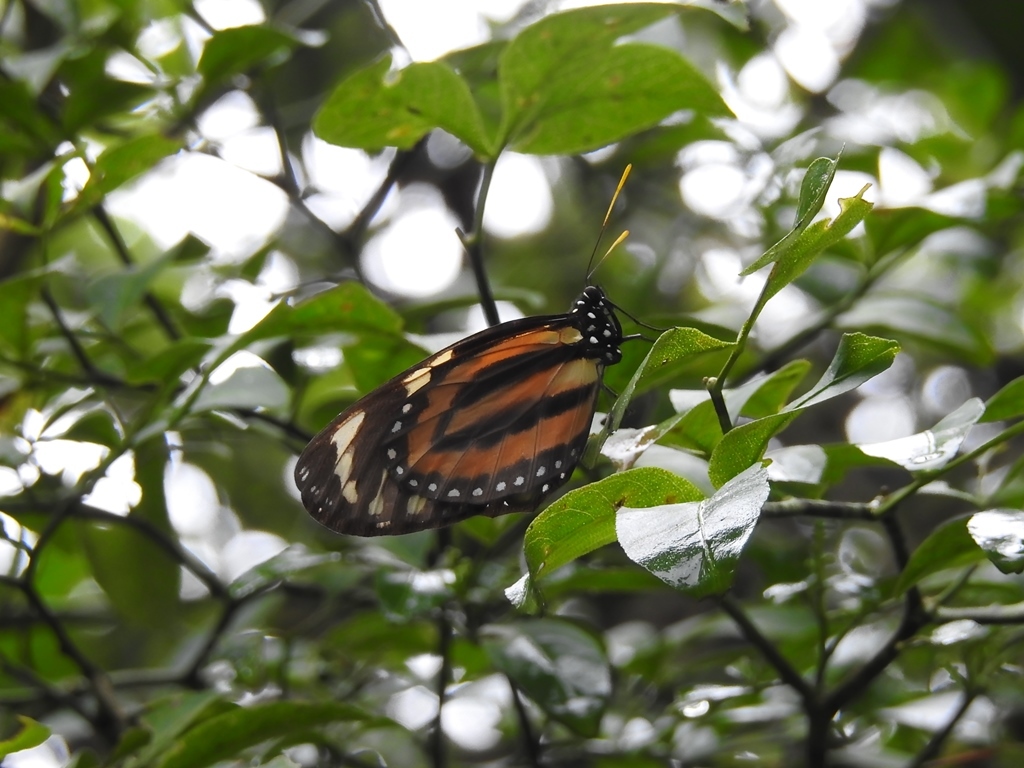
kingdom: Animalia
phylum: Arthropoda
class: Insecta
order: Lepidoptera
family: Nymphalidae
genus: Lycorea
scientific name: Lycorea cleobaea
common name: Tiger mimic-queen
